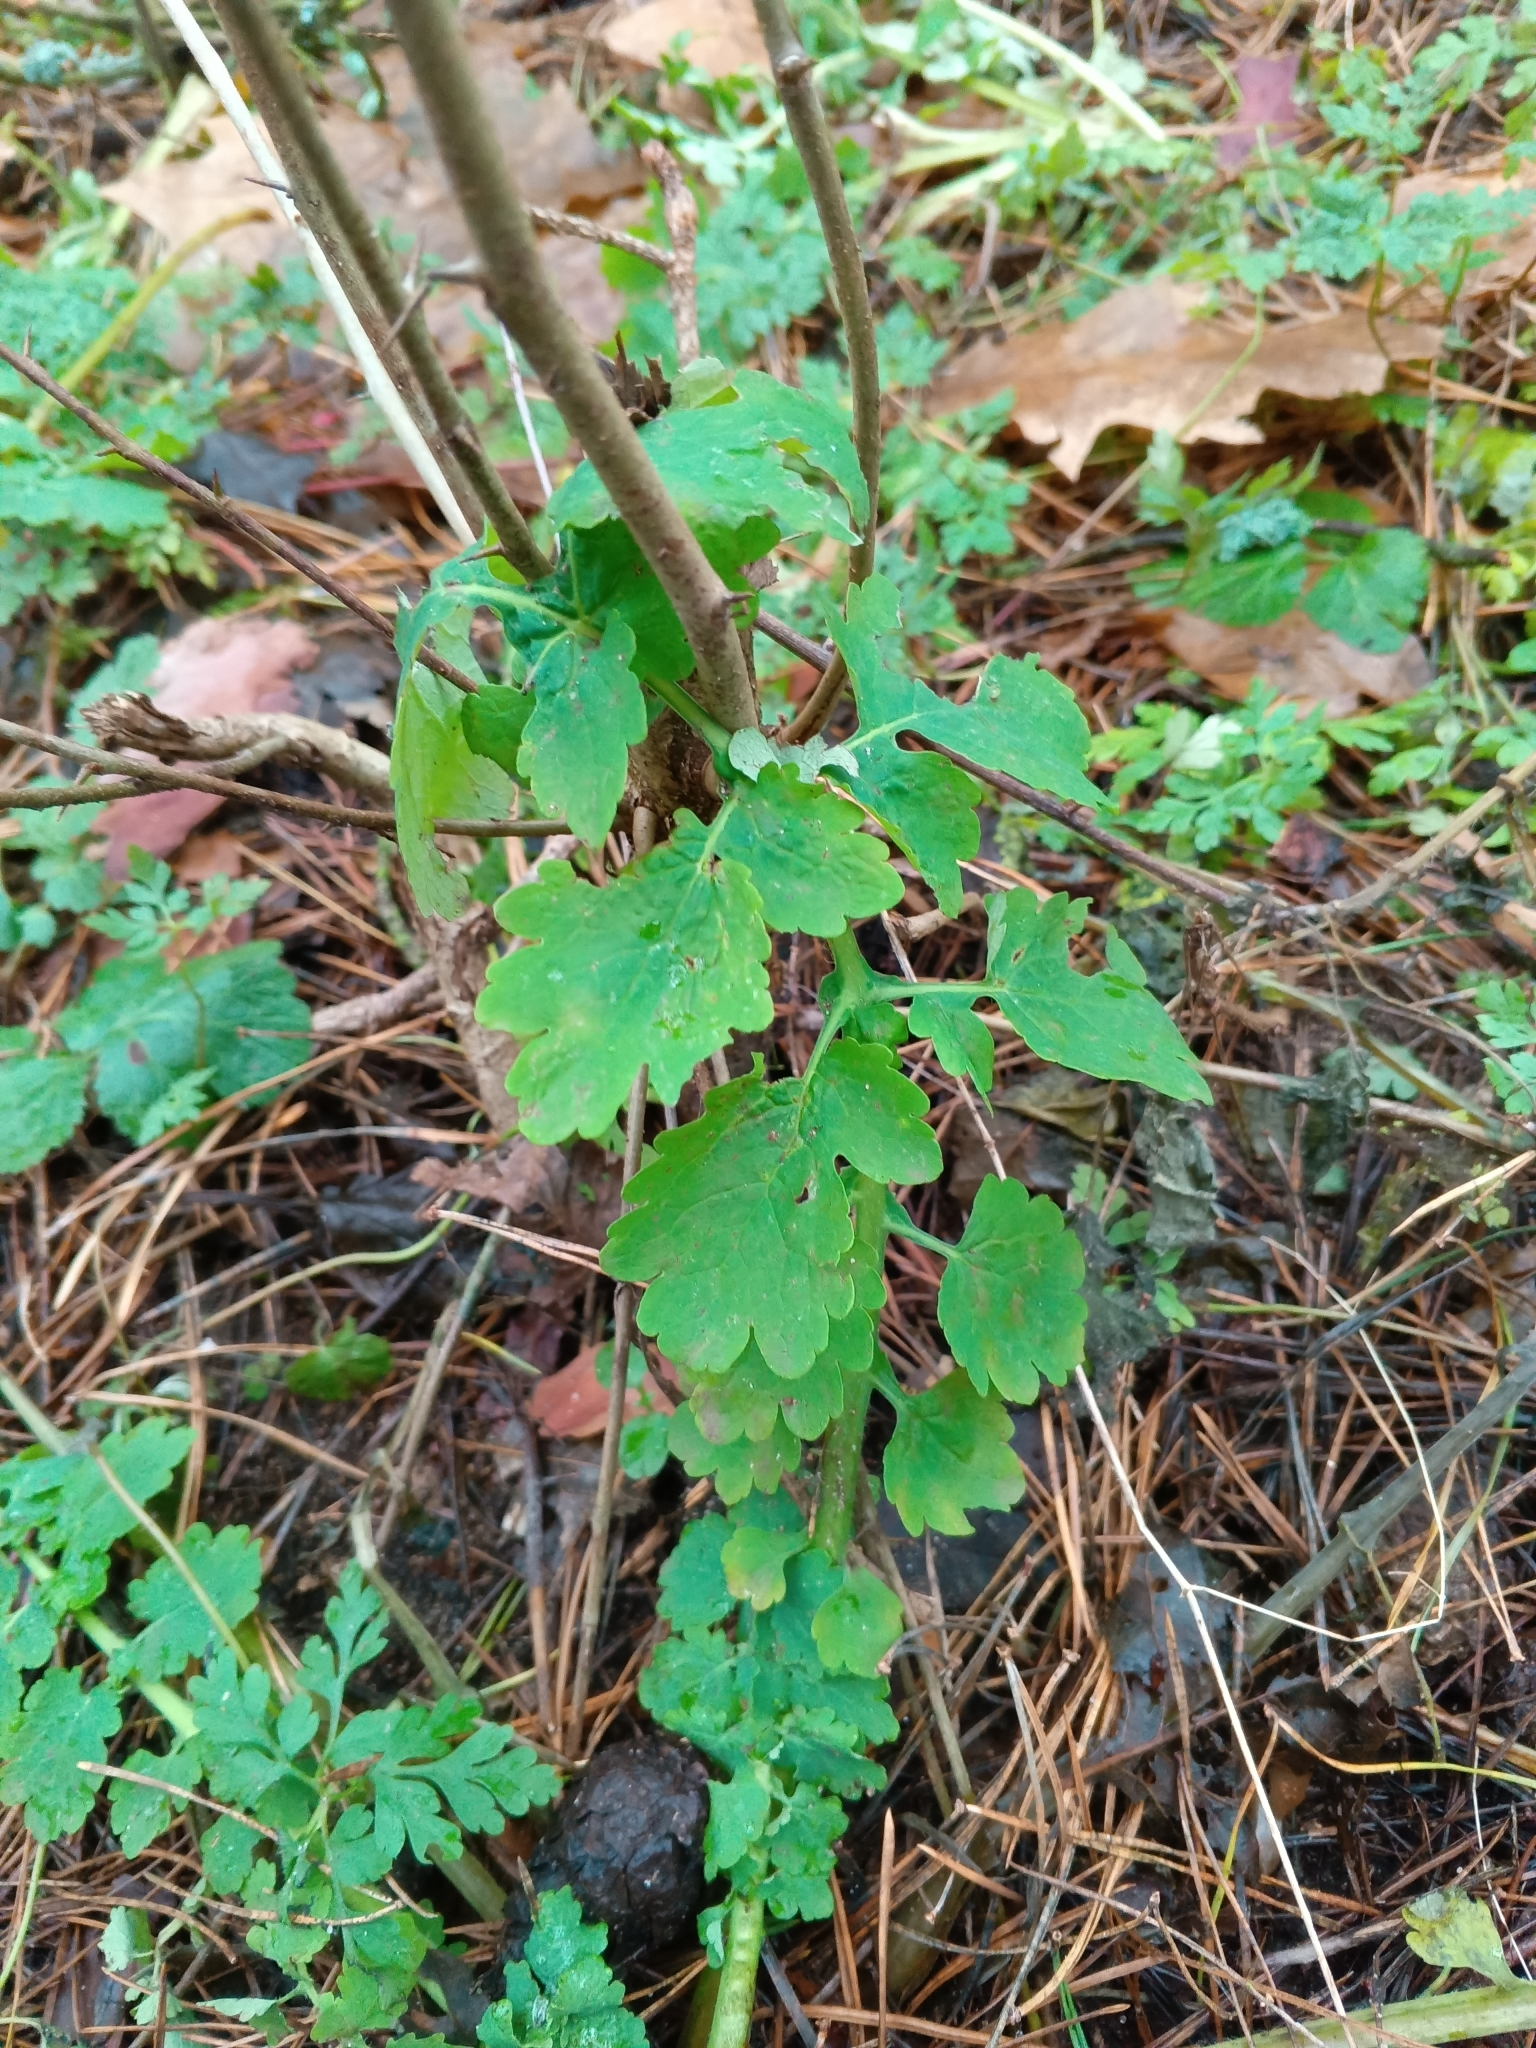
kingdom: Plantae
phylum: Tracheophyta
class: Magnoliopsida
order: Ranunculales
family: Papaveraceae
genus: Chelidonium
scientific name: Chelidonium majus
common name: Greater celandine
